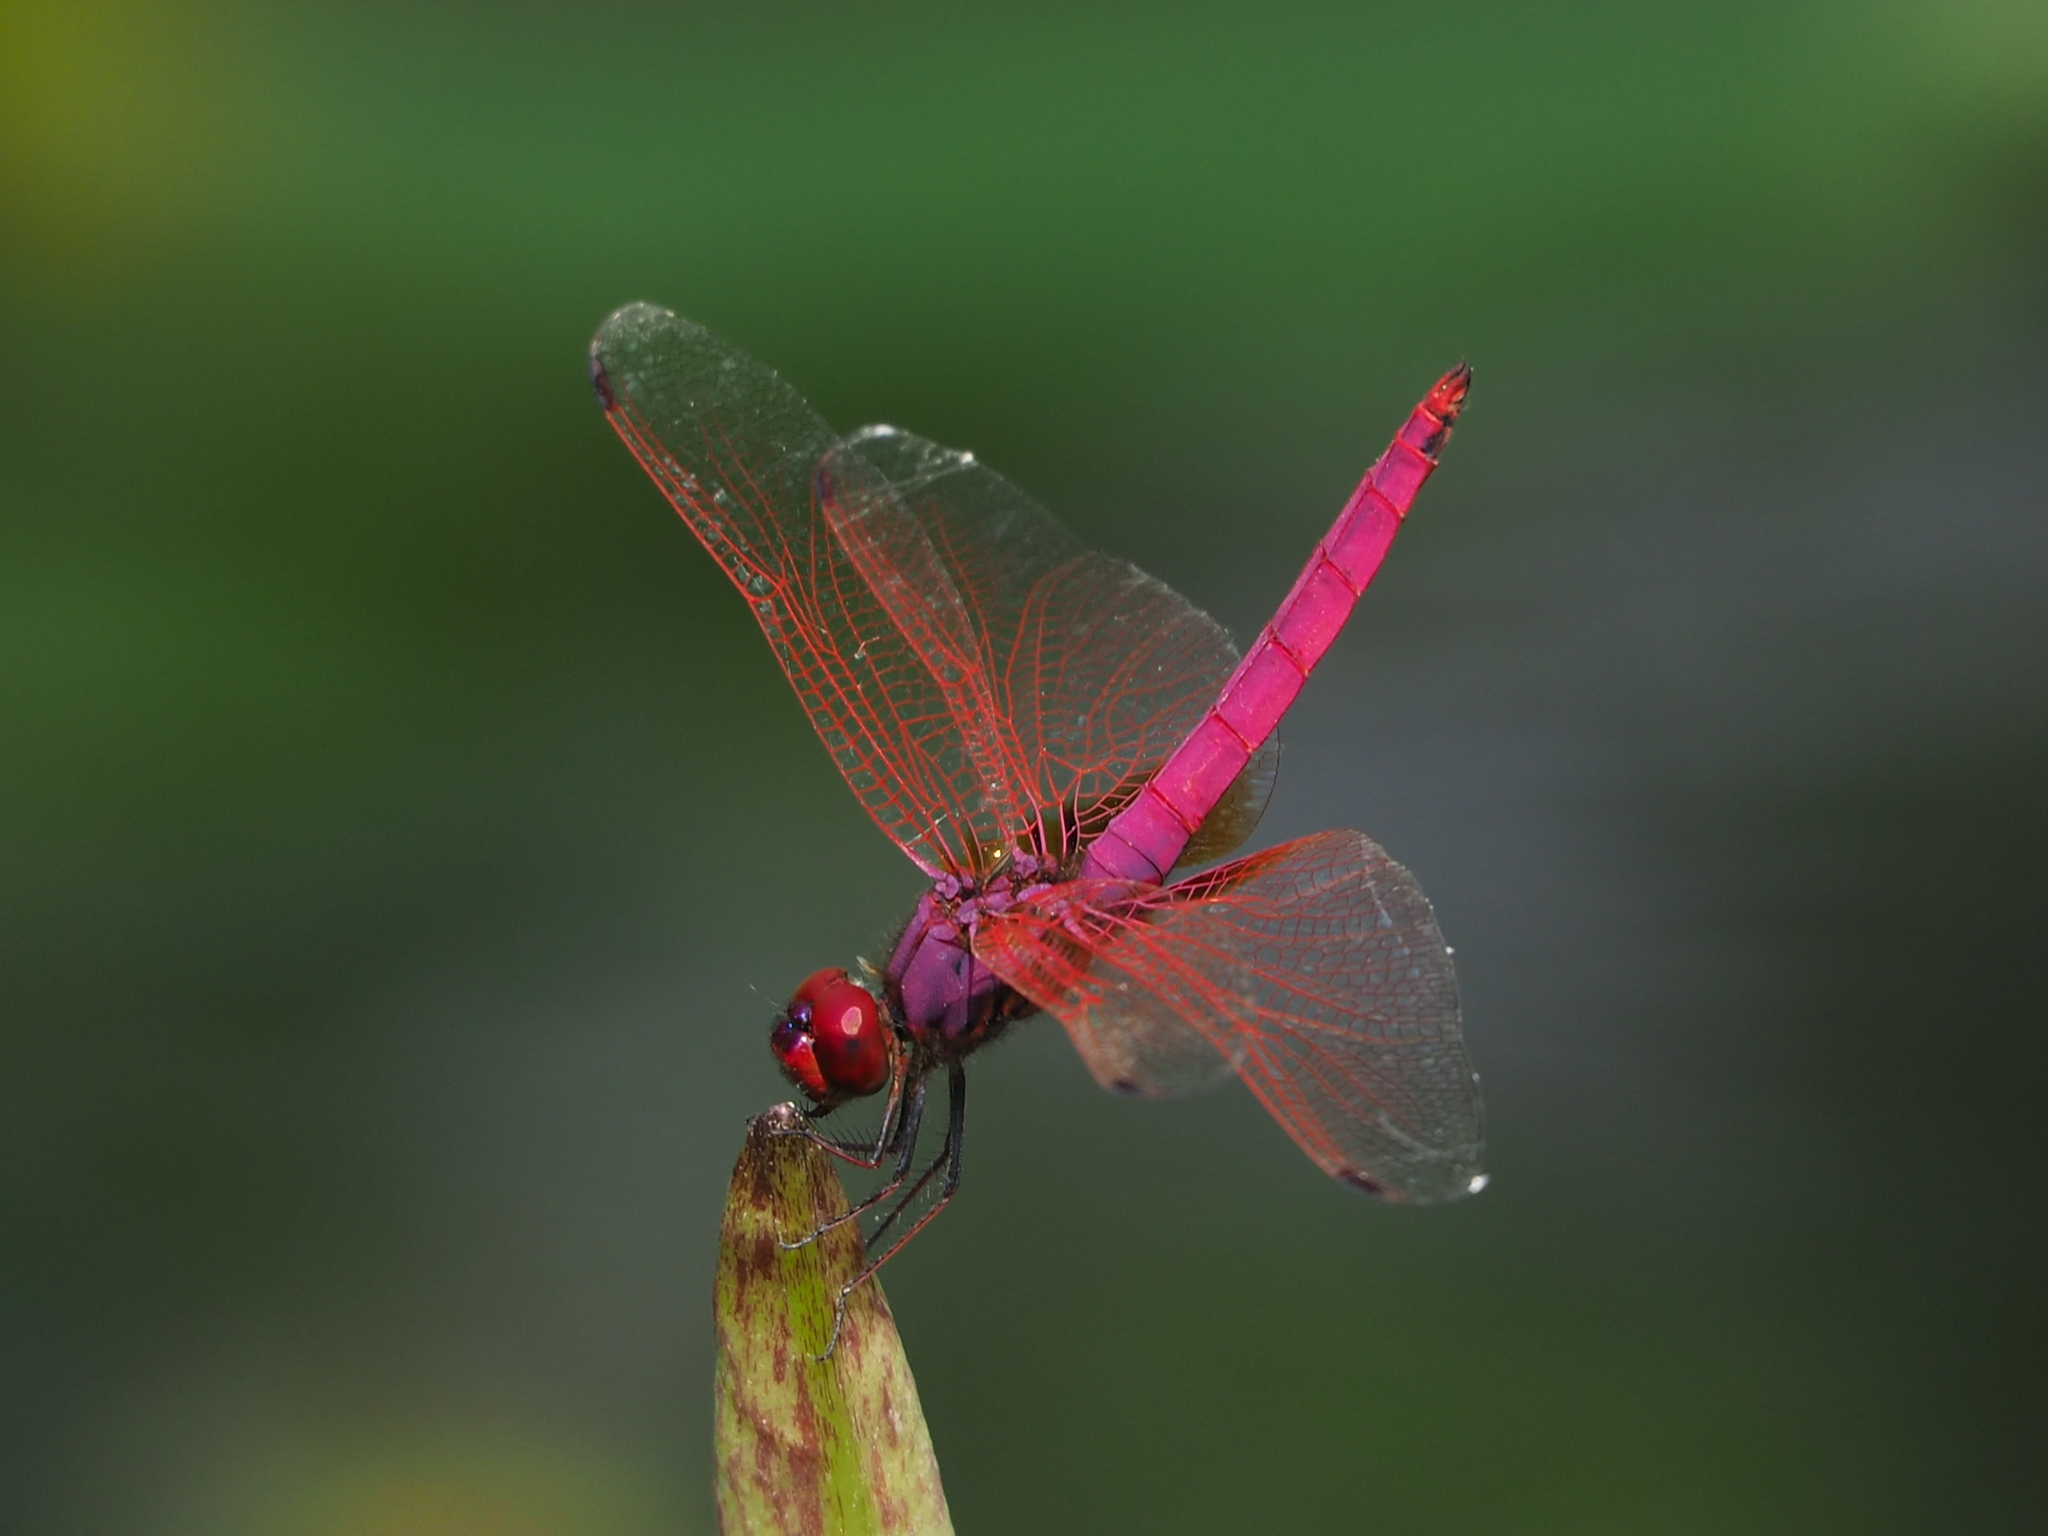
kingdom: Animalia
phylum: Arthropoda
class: Insecta
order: Odonata
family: Libellulidae
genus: Trithemis
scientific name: Trithemis aurora
